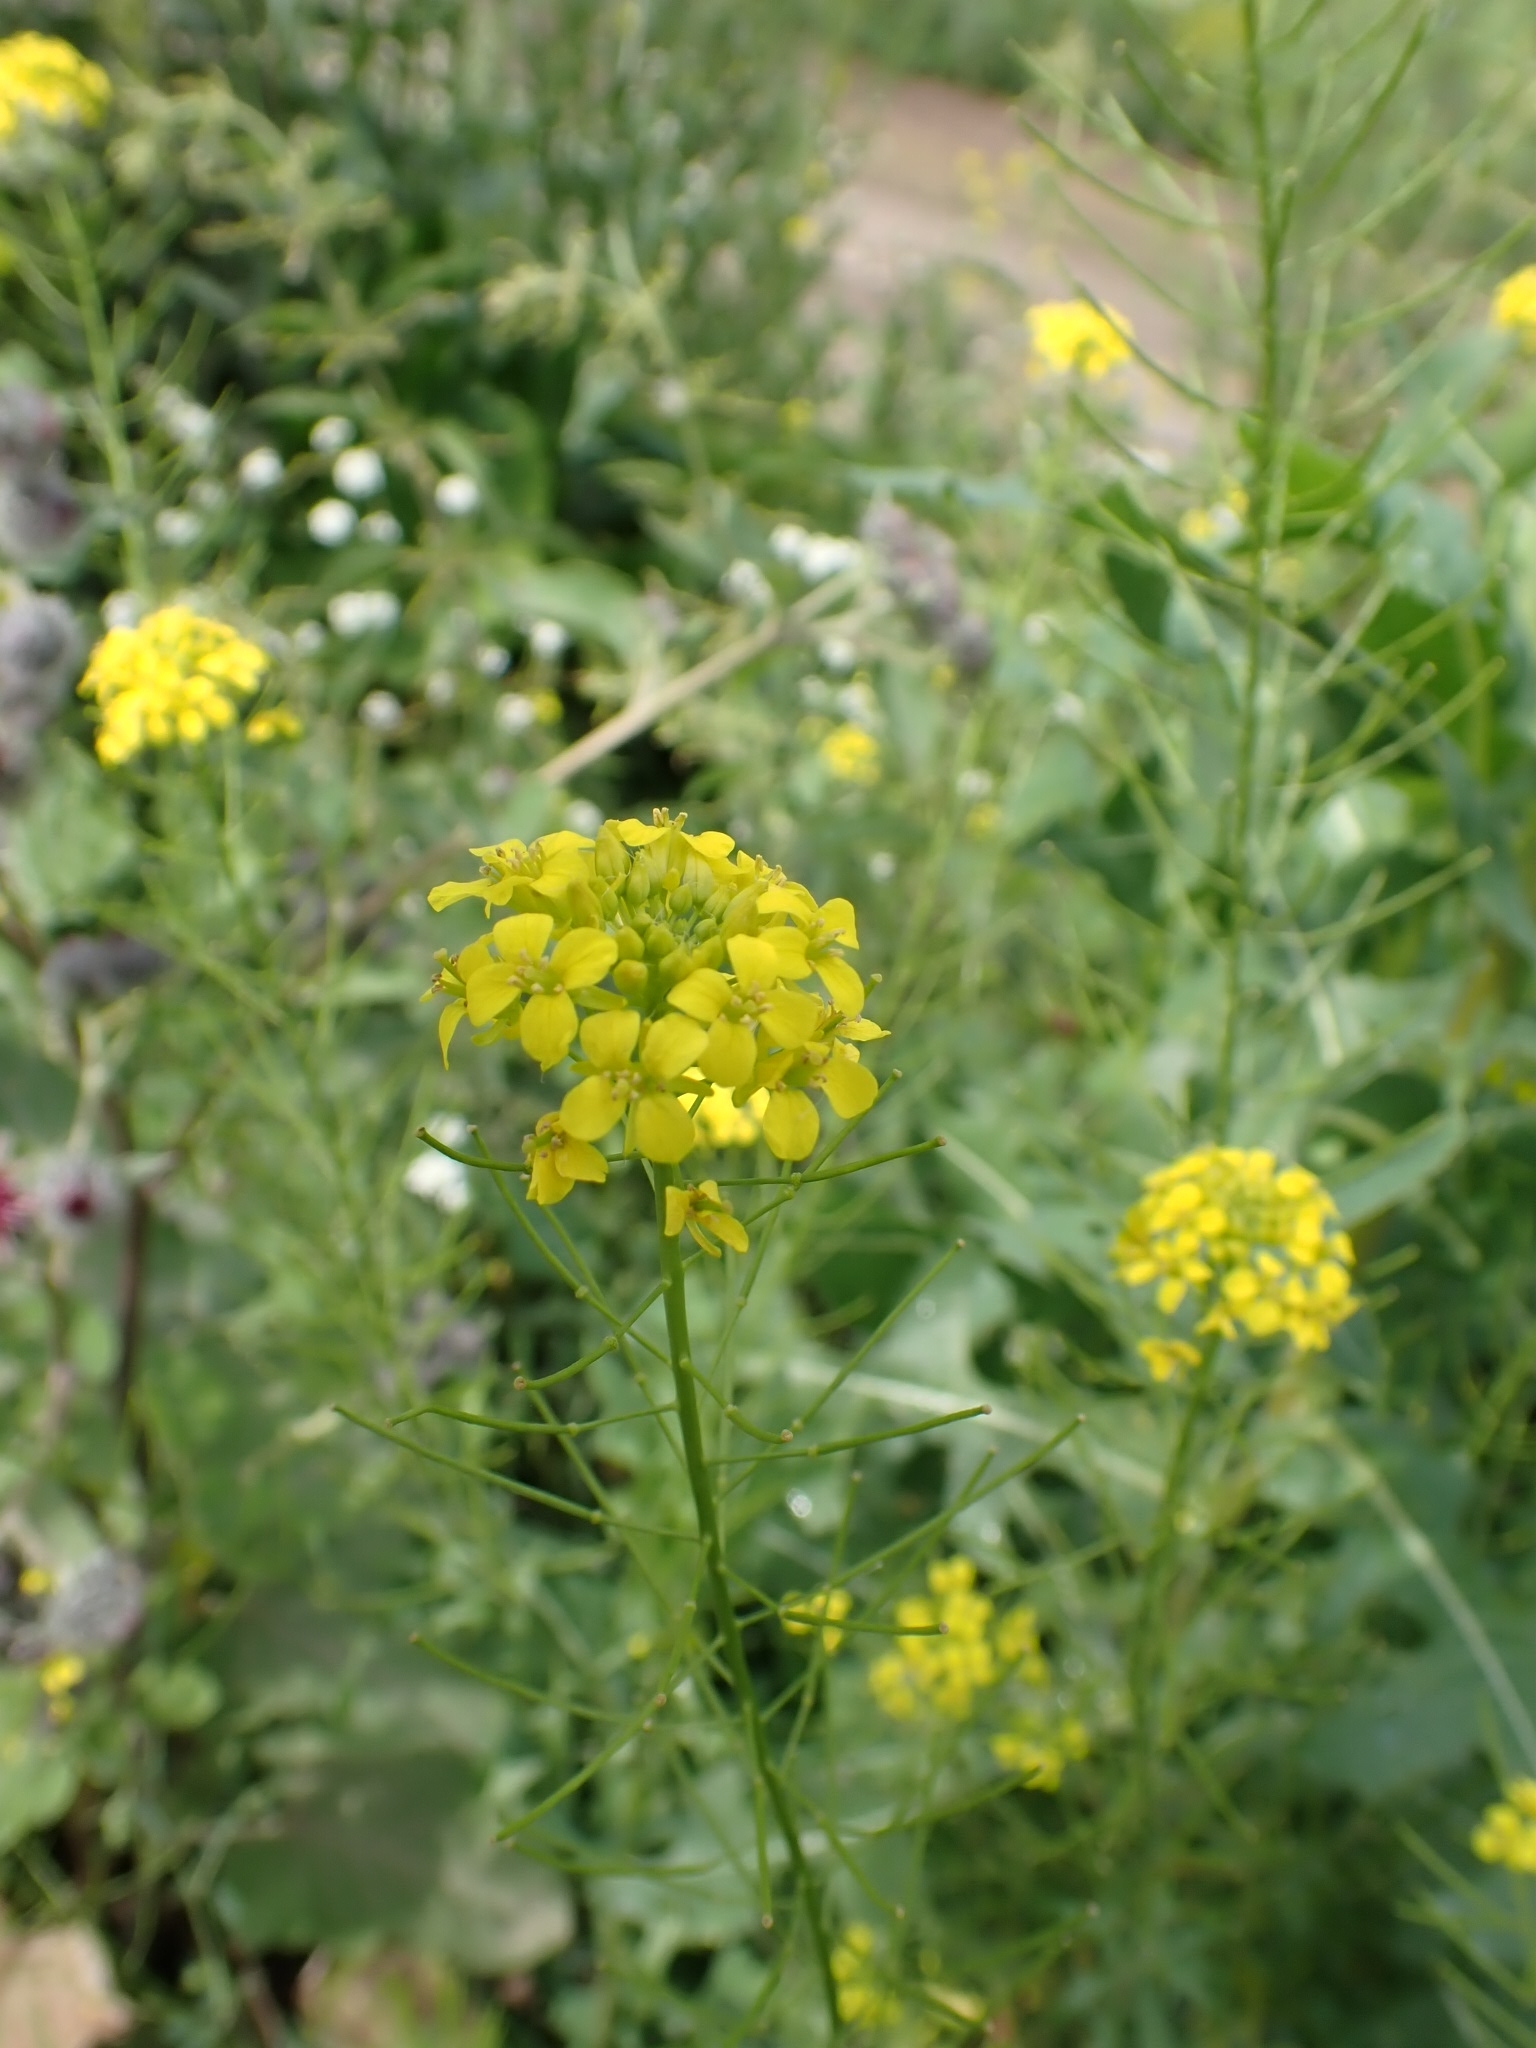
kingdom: Plantae
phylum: Tracheophyta
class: Magnoliopsida
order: Brassicales
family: Brassicaceae
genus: Sisymbrium
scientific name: Sisymbrium loeselii
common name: False london-rocket
